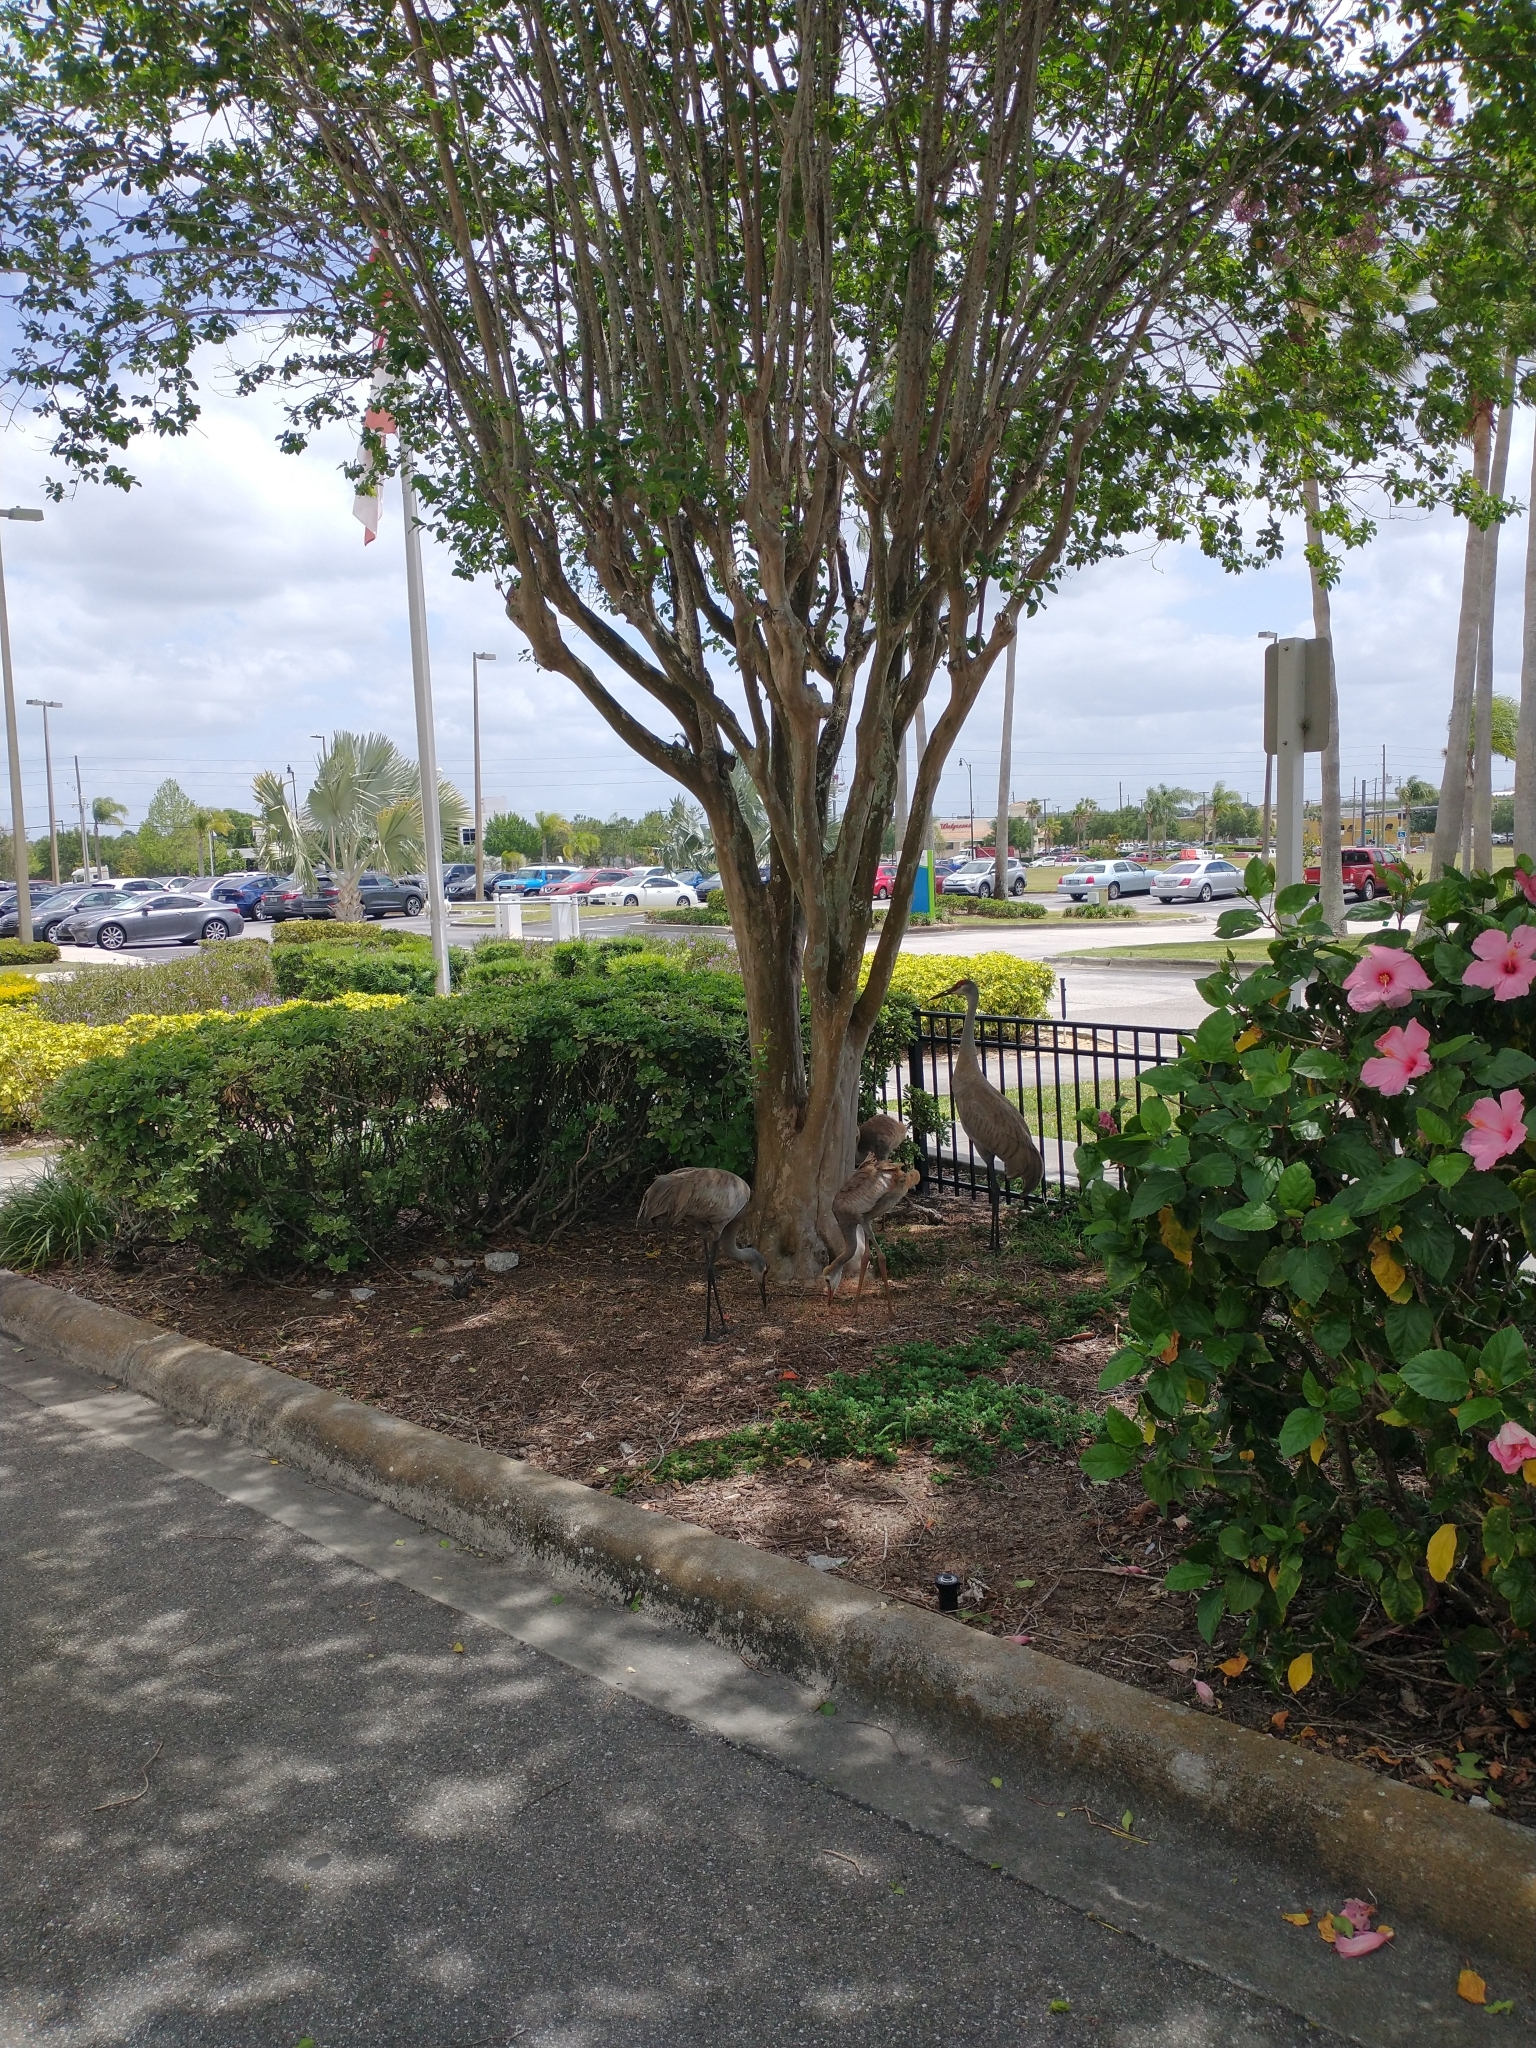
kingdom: Animalia
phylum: Chordata
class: Aves
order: Gruiformes
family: Gruidae
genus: Grus
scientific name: Grus canadensis
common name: Sandhill crane
